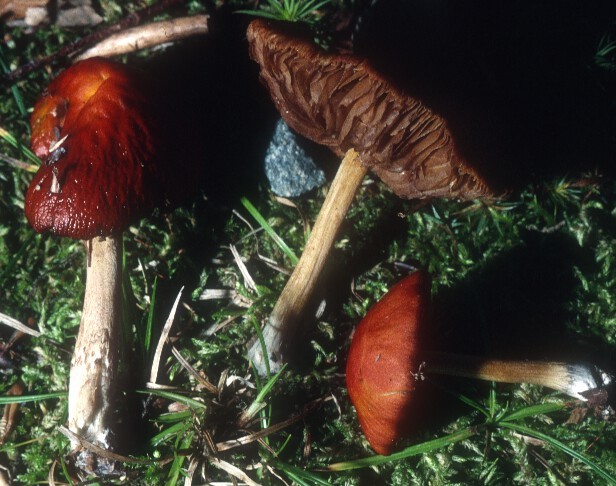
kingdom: Fungi
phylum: Basidiomycota
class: Agaricomycetes
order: Agaricales
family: Bolbitiaceae
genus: Bolbitius
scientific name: Bolbitius callistus
